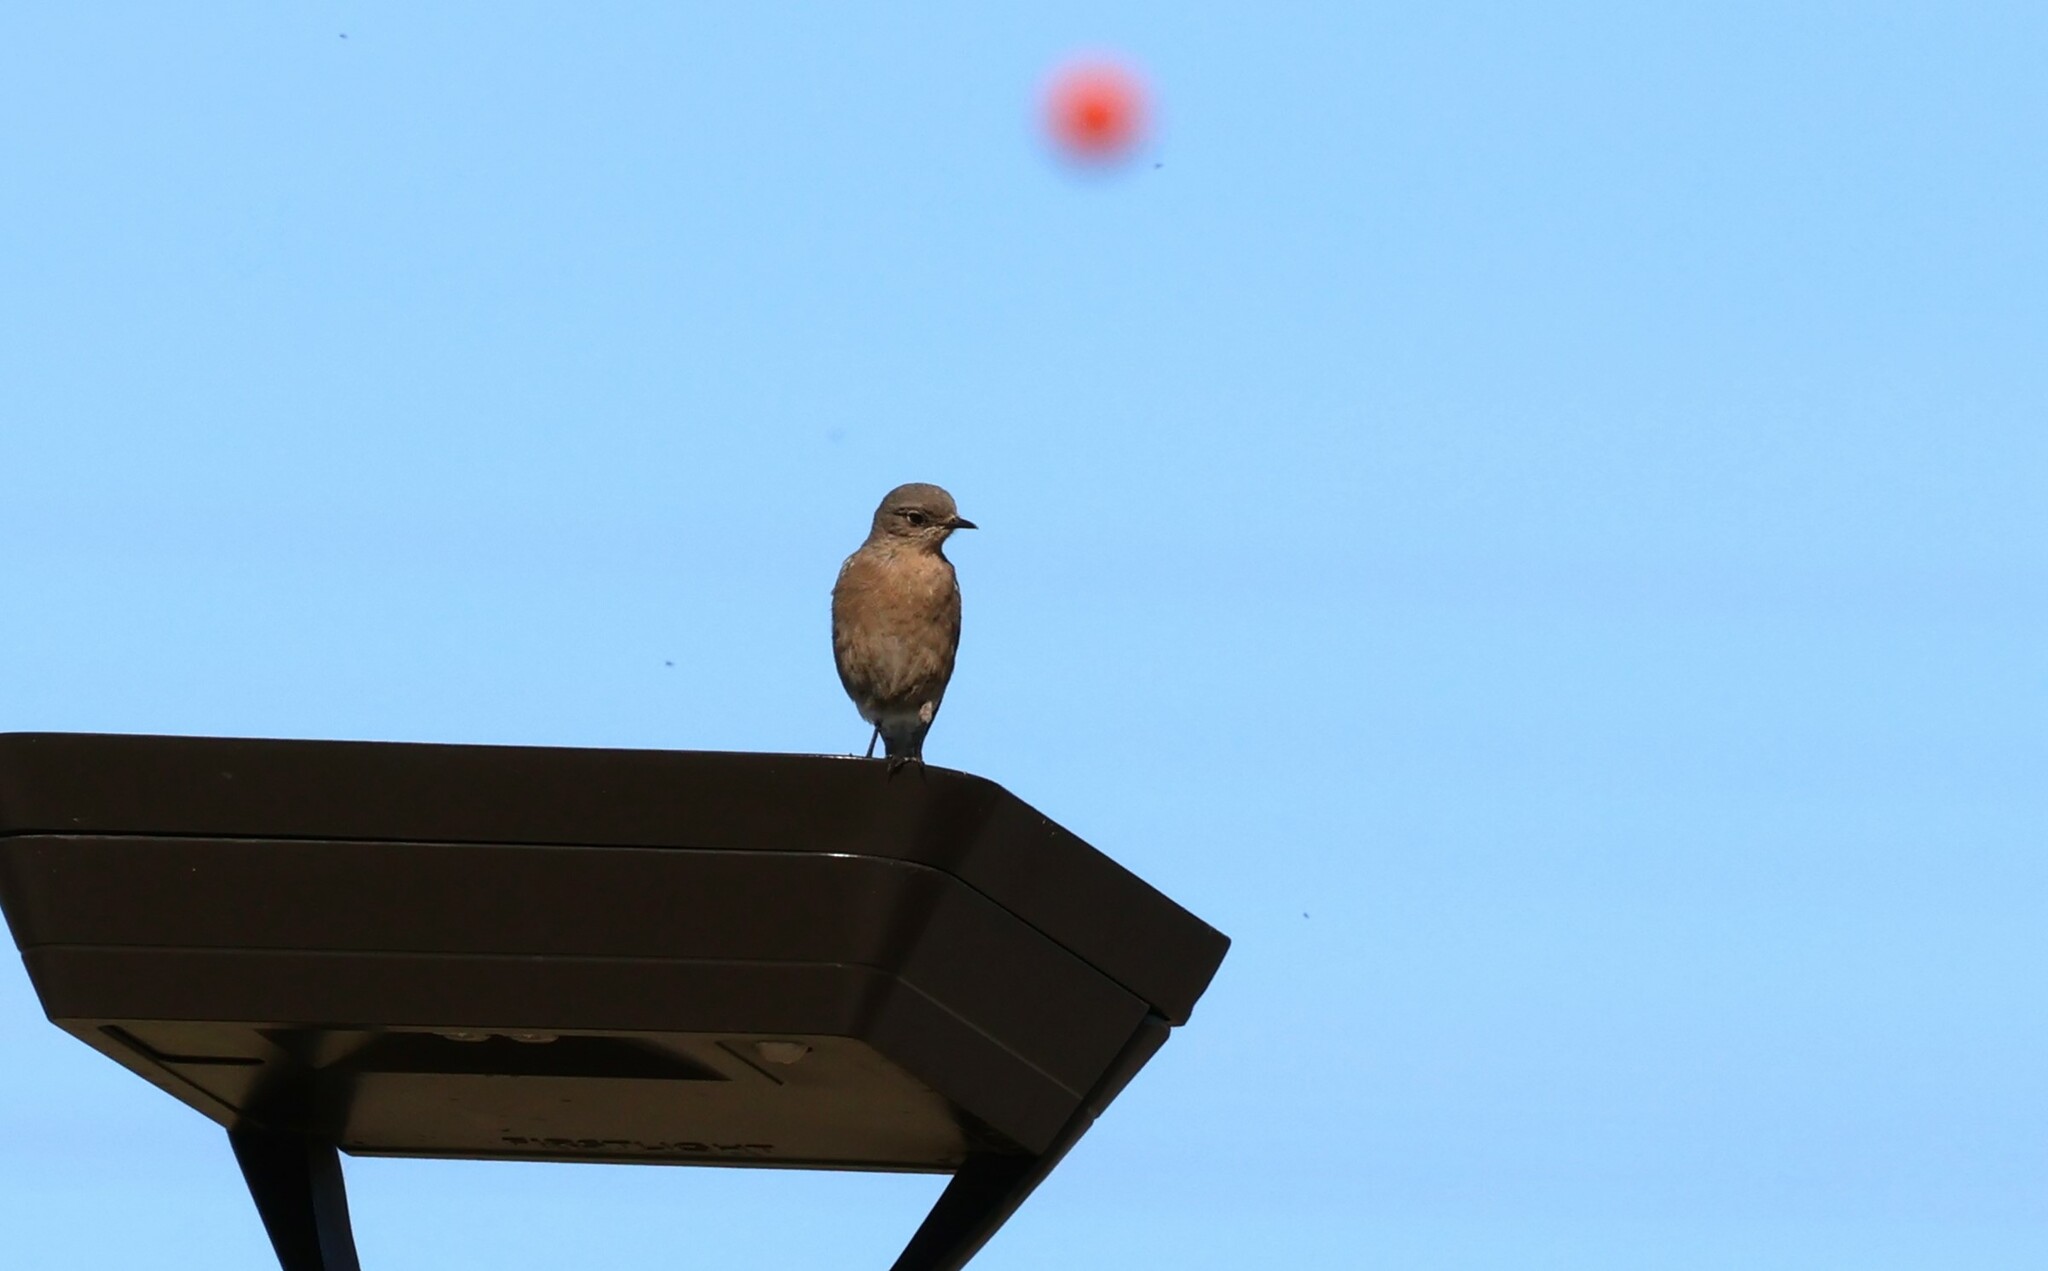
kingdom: Animalia
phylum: Chordata
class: Aves
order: Passeriformes
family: Turdidae
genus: Sialia
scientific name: Sialia mexicana
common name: Western bluebird
